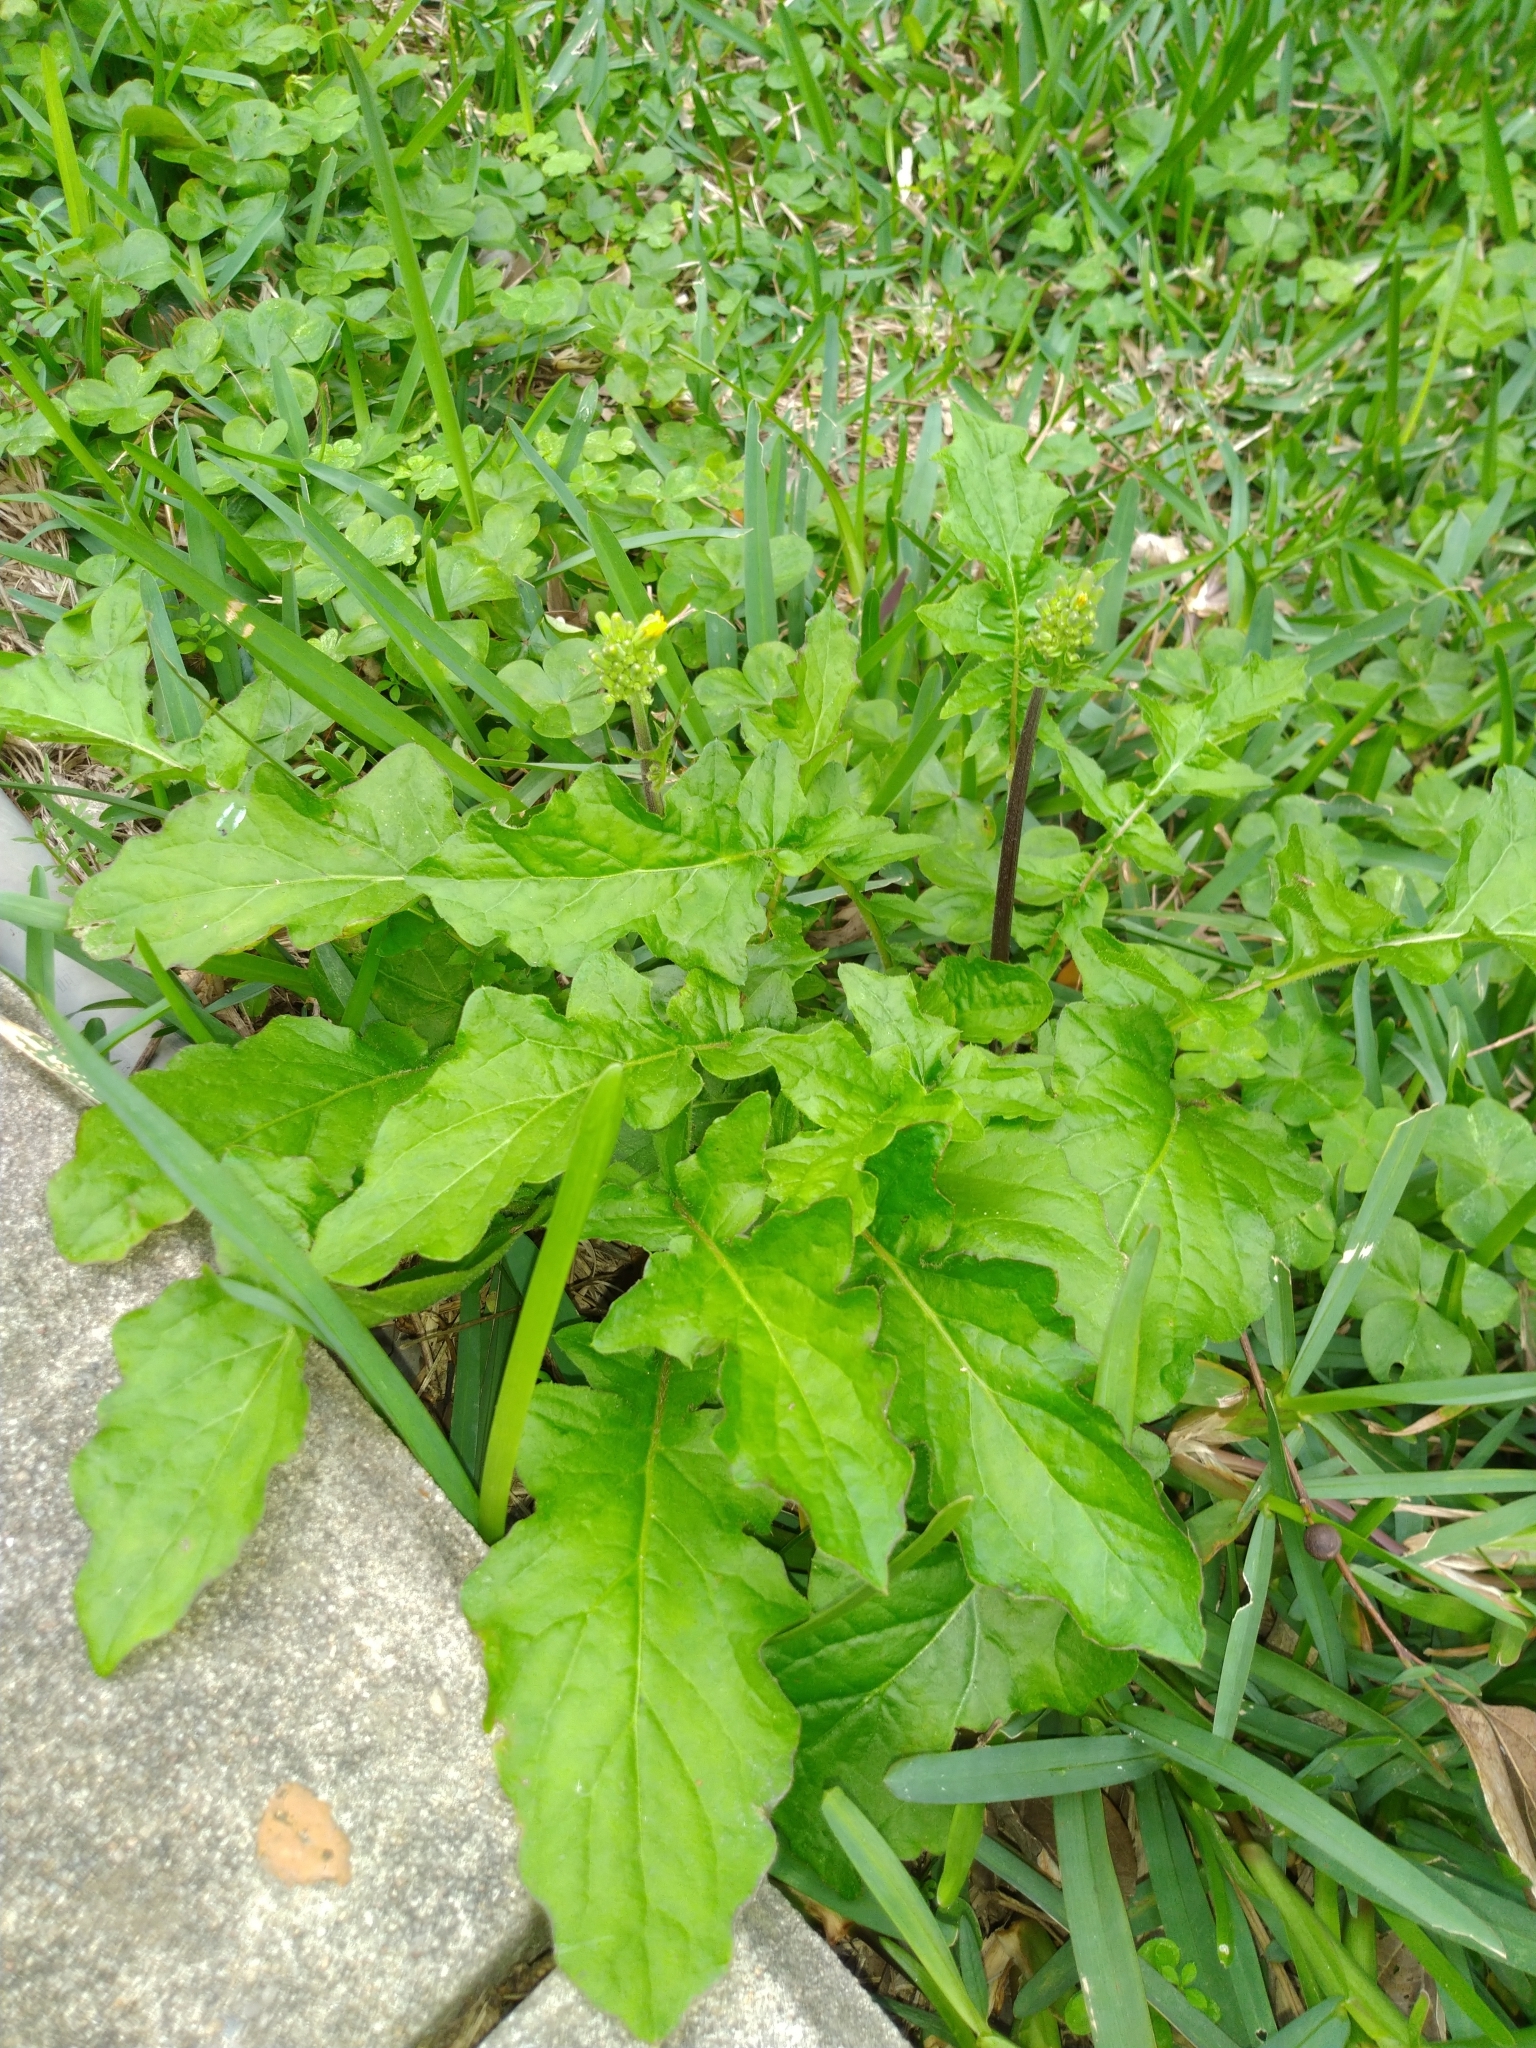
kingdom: Plantae
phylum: Tracheophyta
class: Magnoliopsida
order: Asterales
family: Asteraceae
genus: Youngia
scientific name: Youngia japonica
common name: Oriental false hawksbeard
